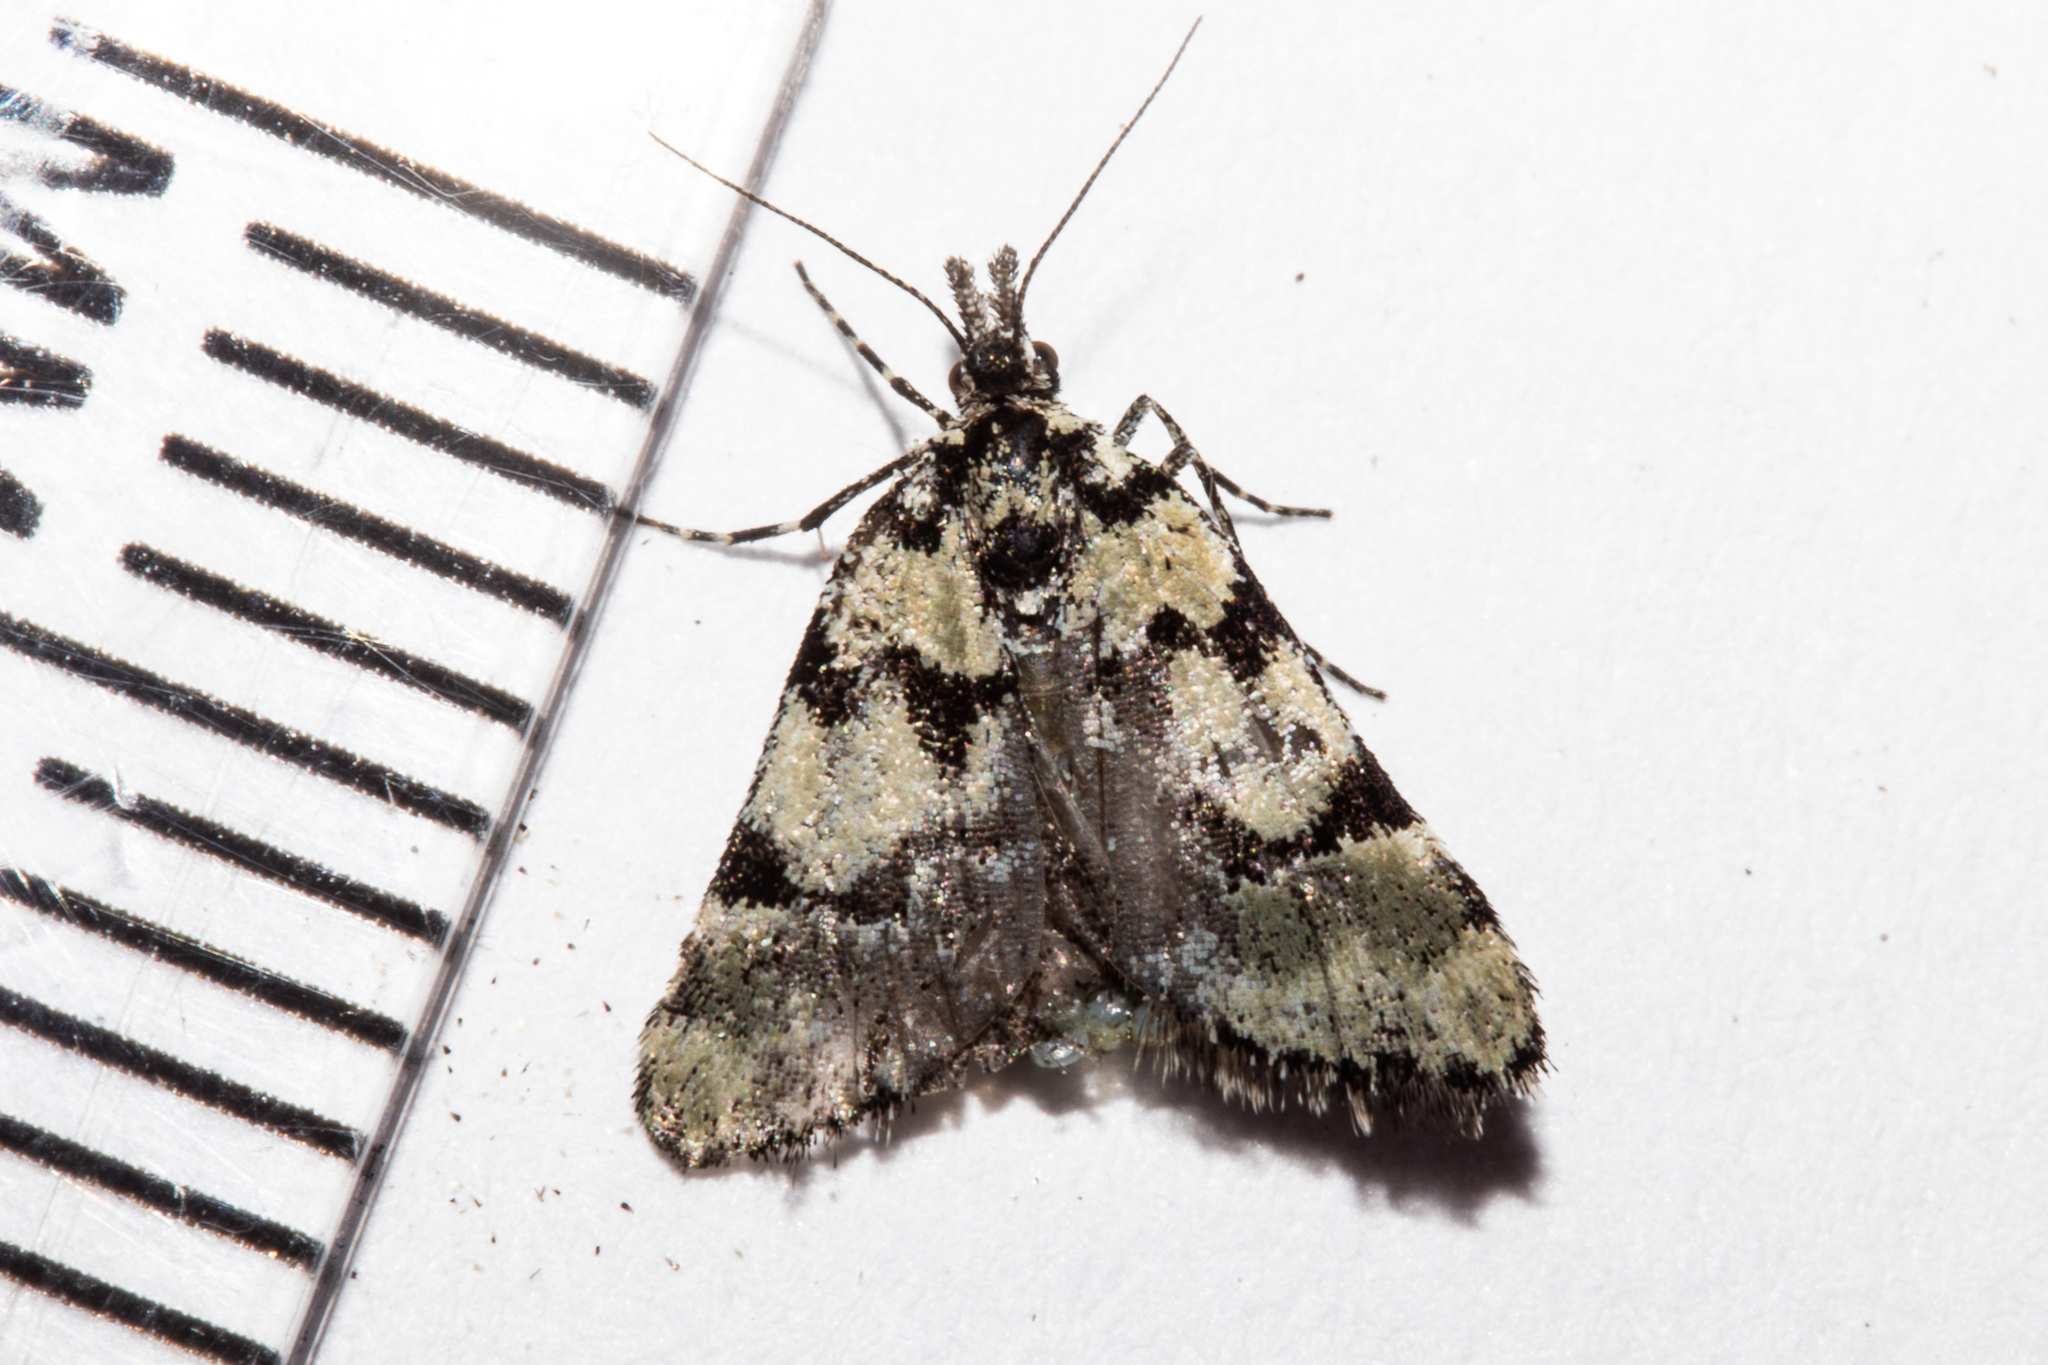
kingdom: Animalia
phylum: Arthropoda
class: Insecta
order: Lepidoptera
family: Geometridae
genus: Dichromodes
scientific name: Dichromodes gypsotis
